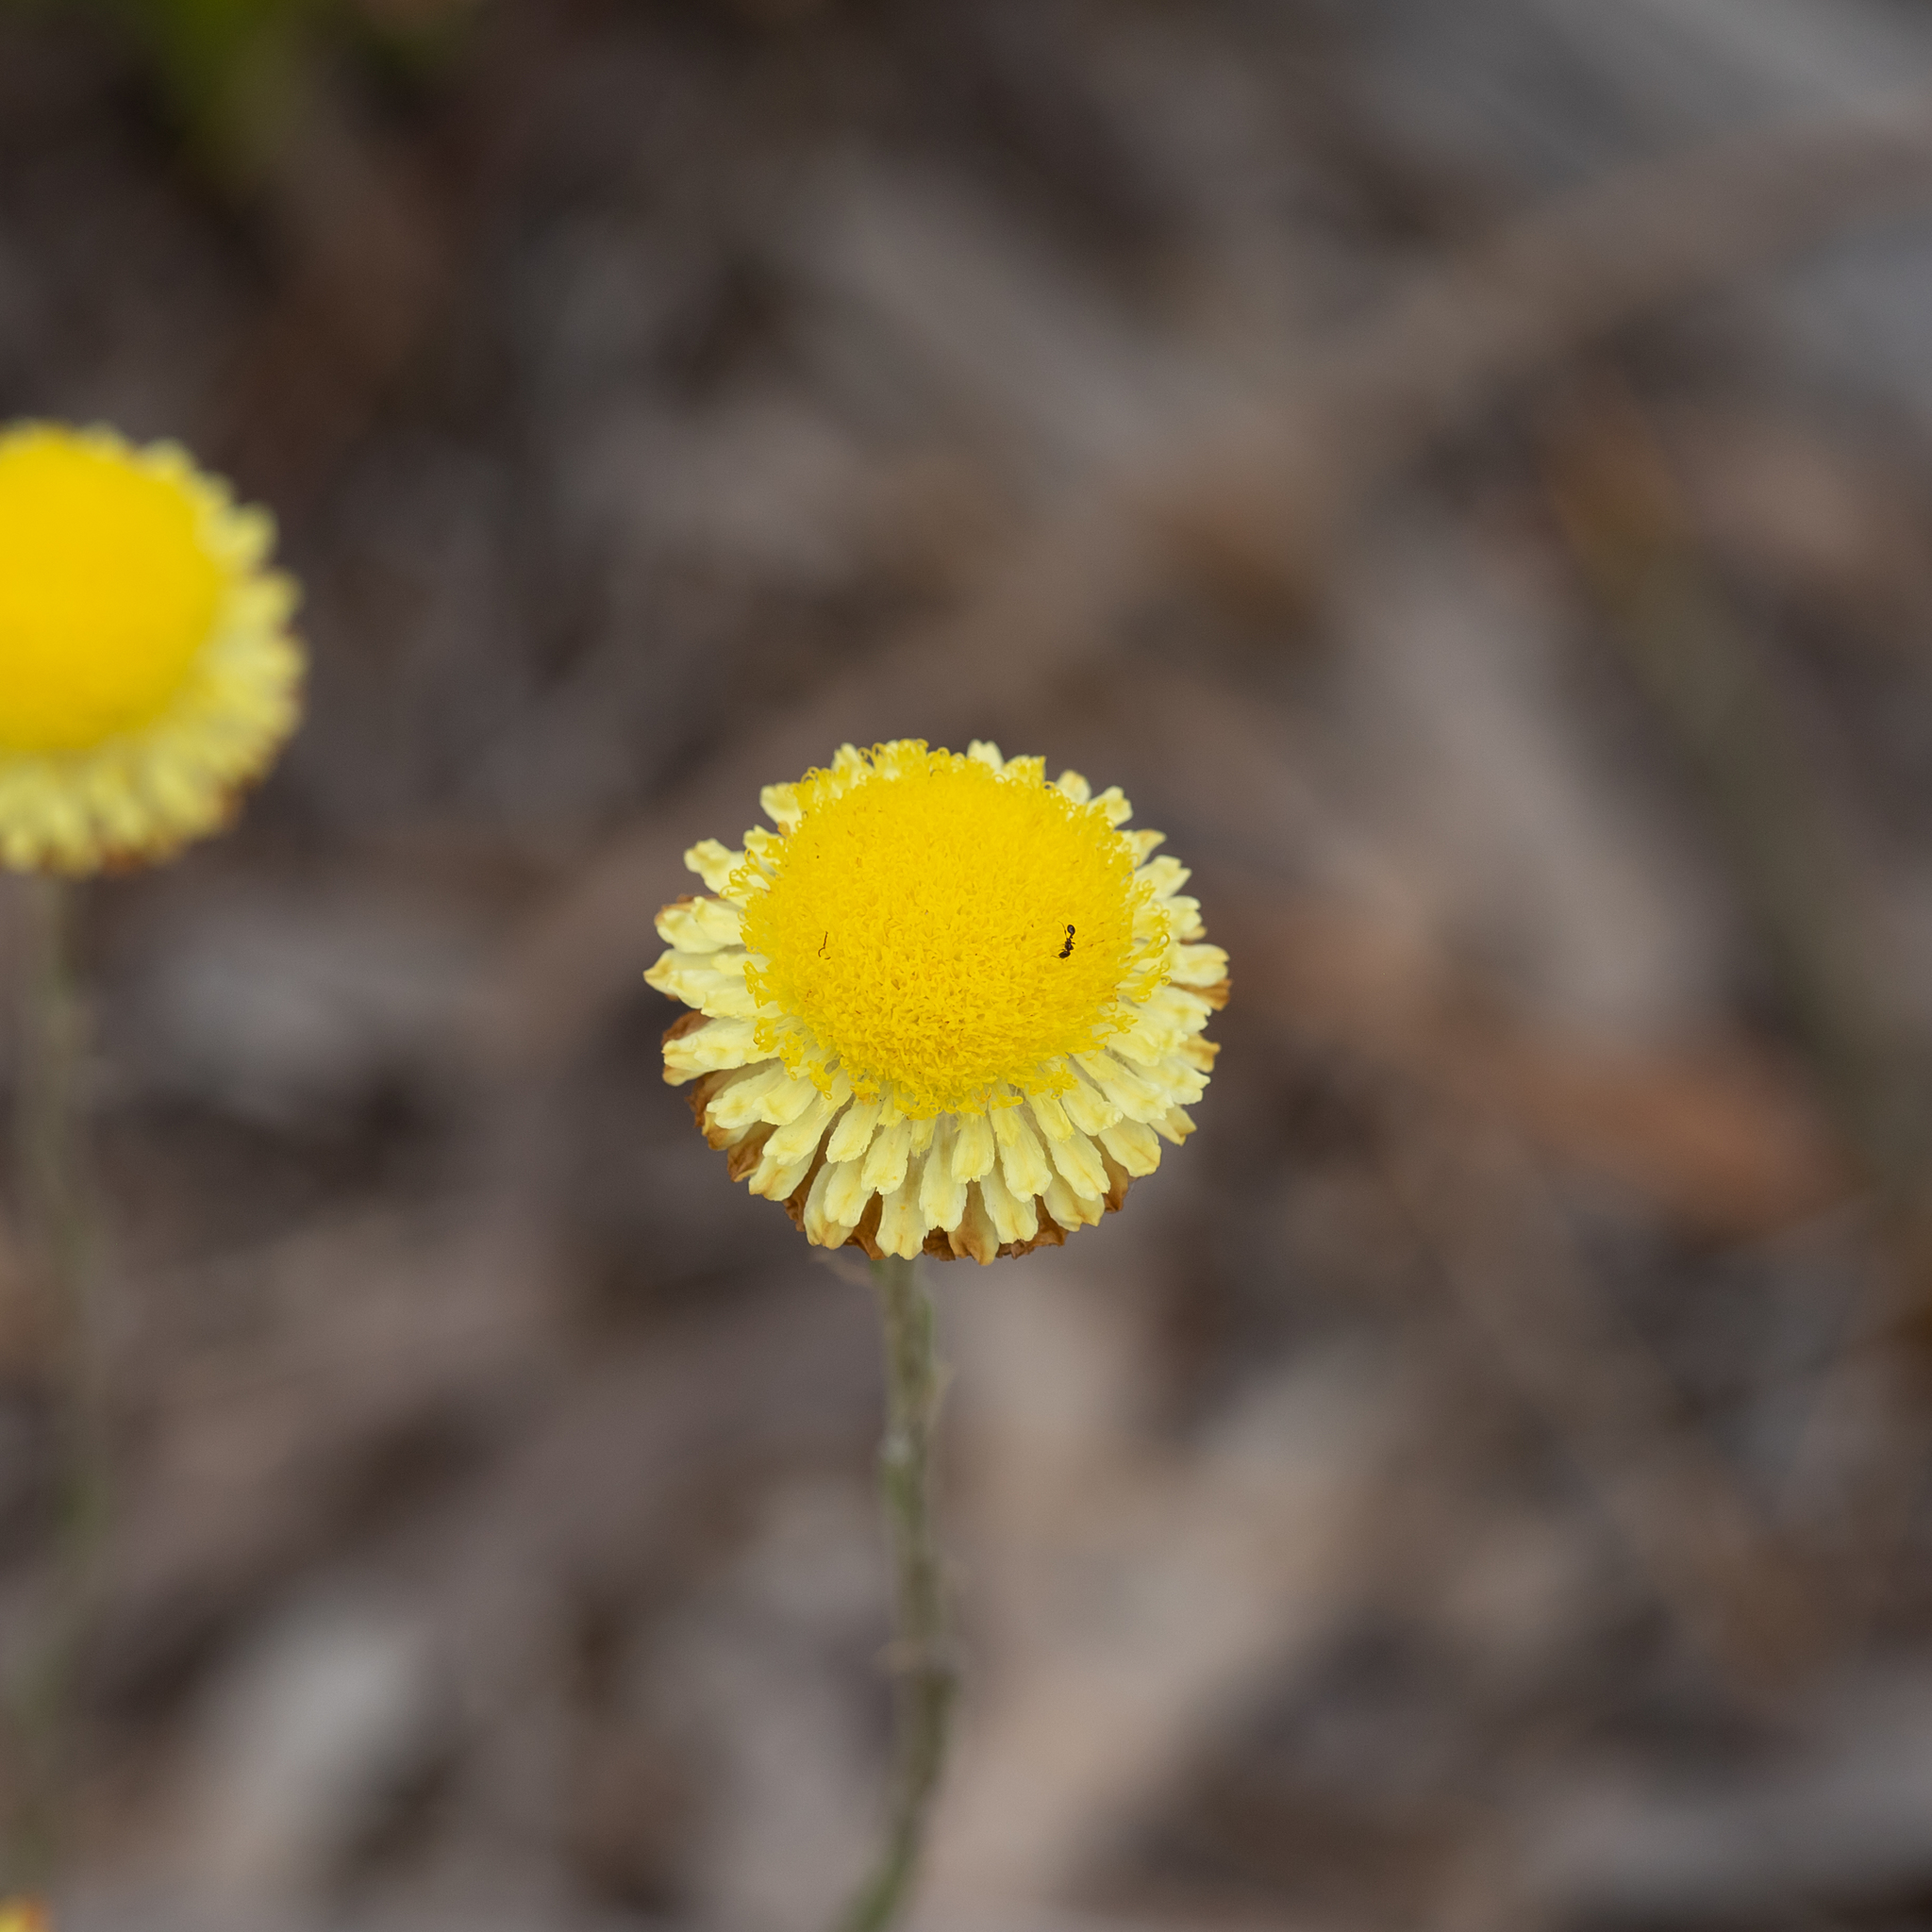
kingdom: Plantae
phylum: Tracheophyta
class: Magnoliopsida
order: Asterales
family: Asteraceae
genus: Coronidium
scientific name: Coronidium scorpioides
